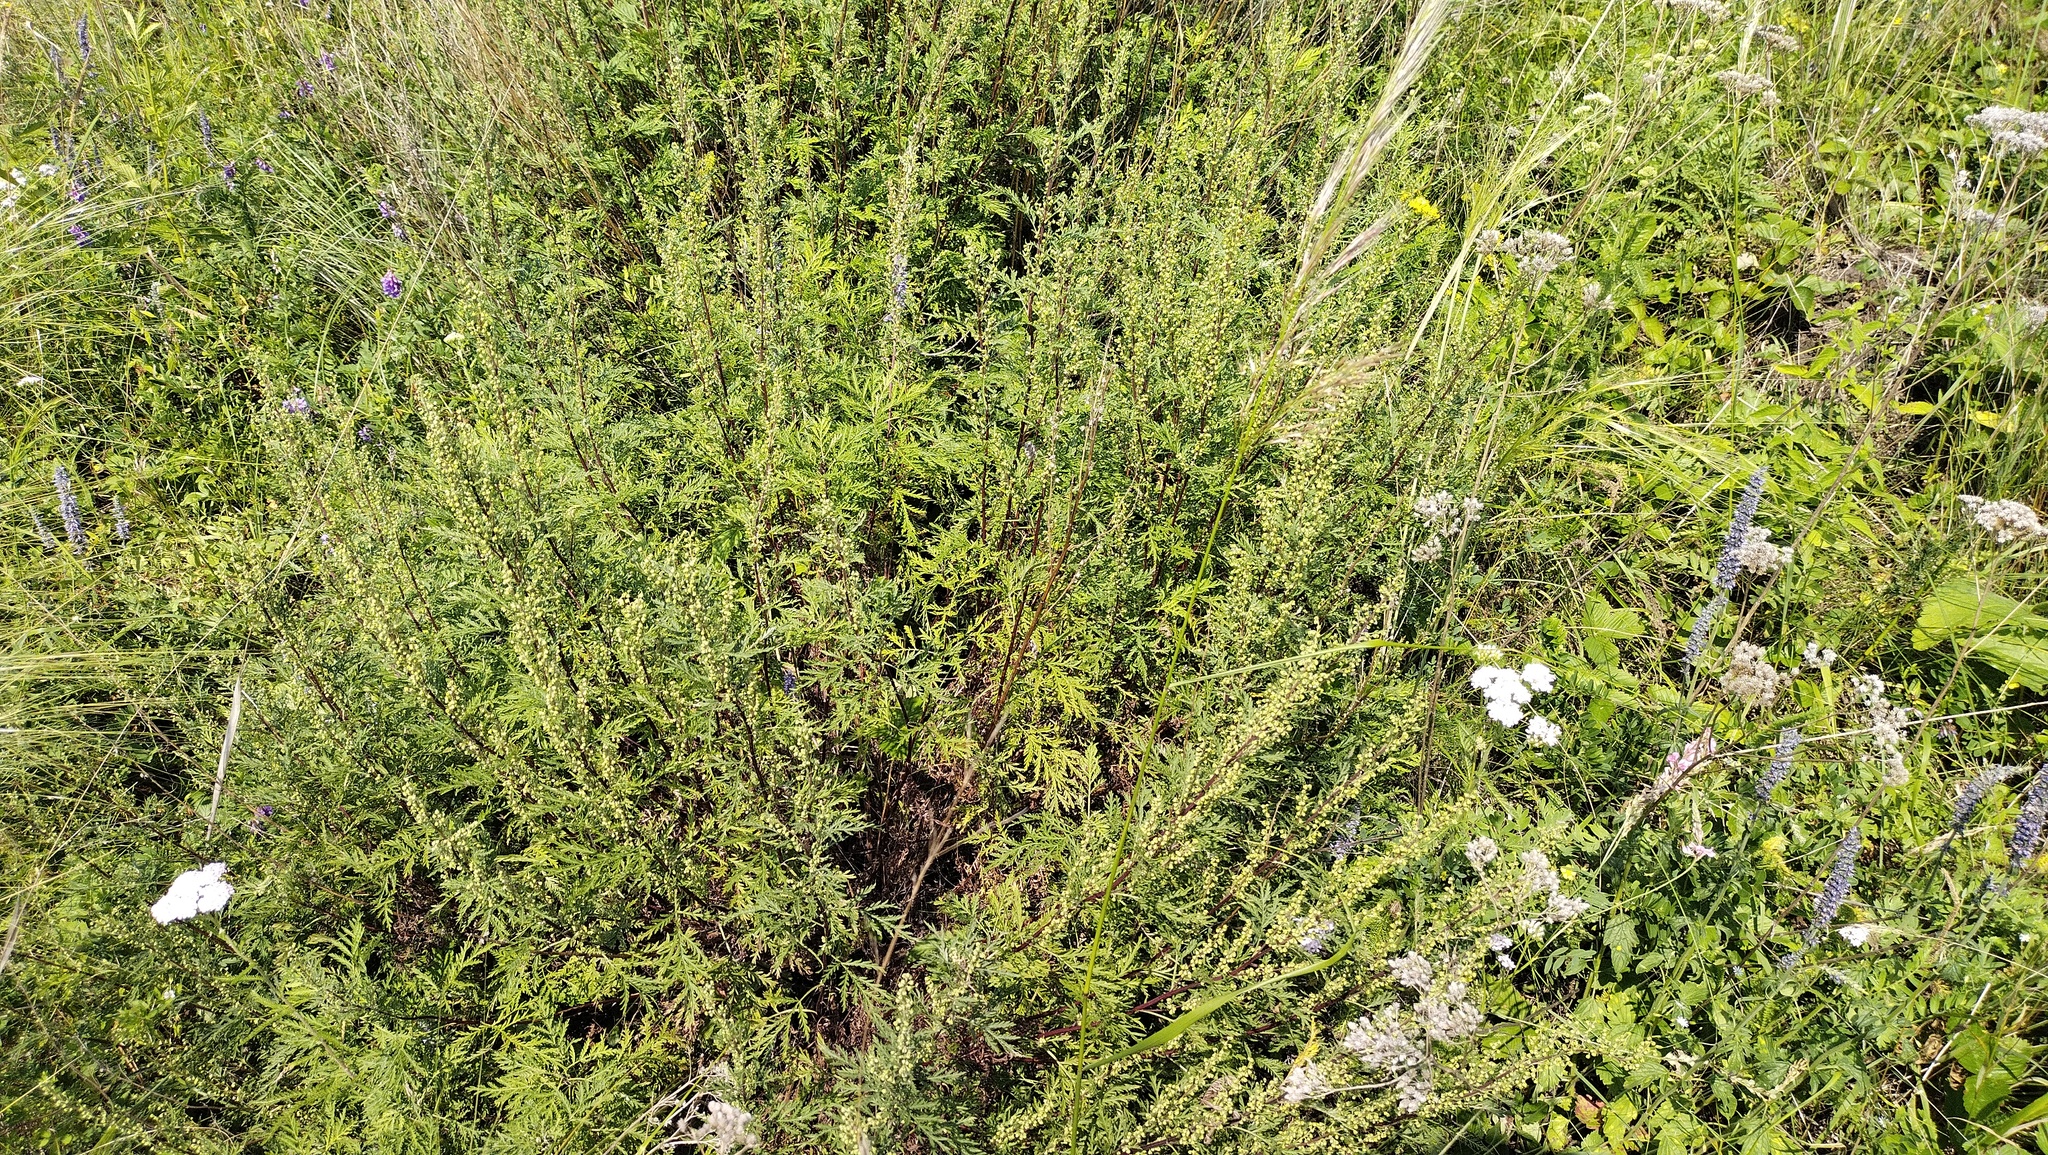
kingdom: Plantae
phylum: Tracheophyta
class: Magnoliopsida
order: Asterales
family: Asteraceae
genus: Artemisia
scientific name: Artemisia scoparia
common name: Redstem wormwood
